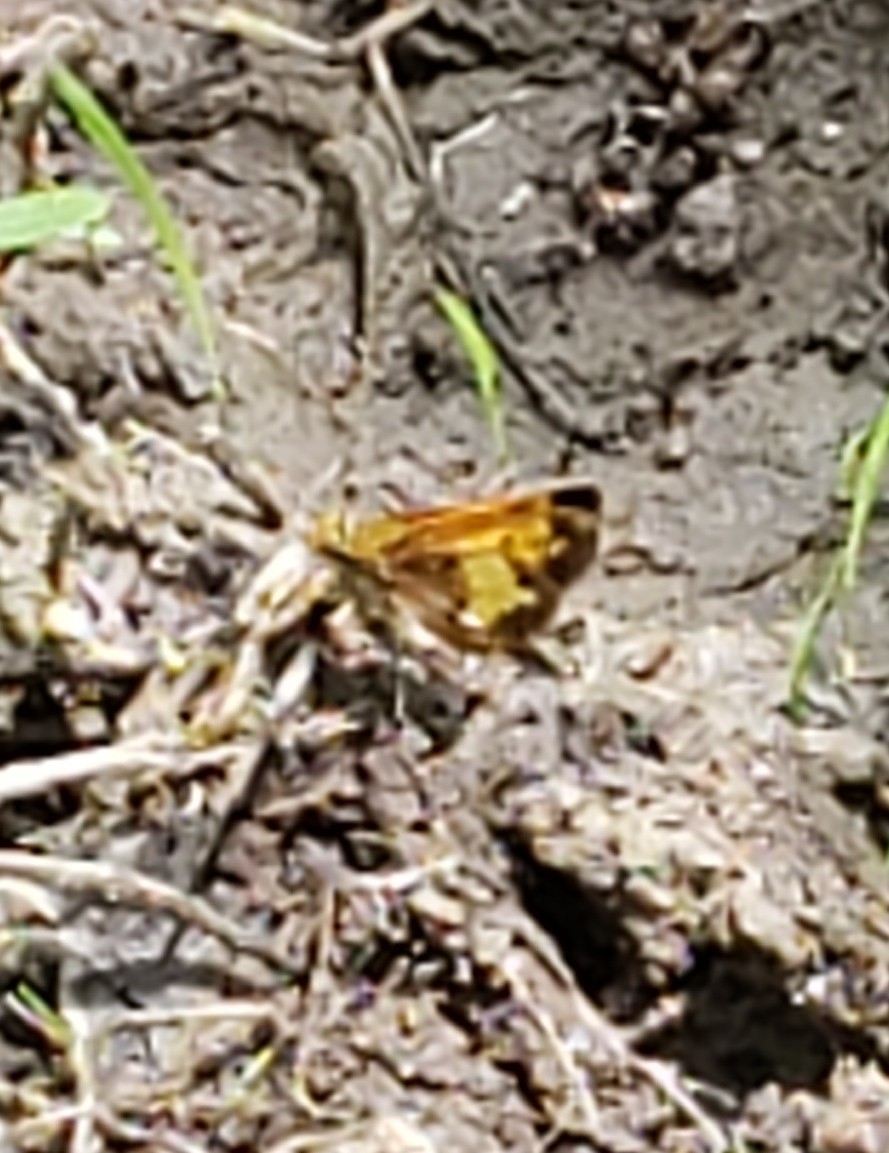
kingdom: Animalia
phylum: Arthropoda
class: Insecta
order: Lepidoptera
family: Hesperiidae
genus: Lon
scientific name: Lon hobomok
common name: Hobomok skipper
